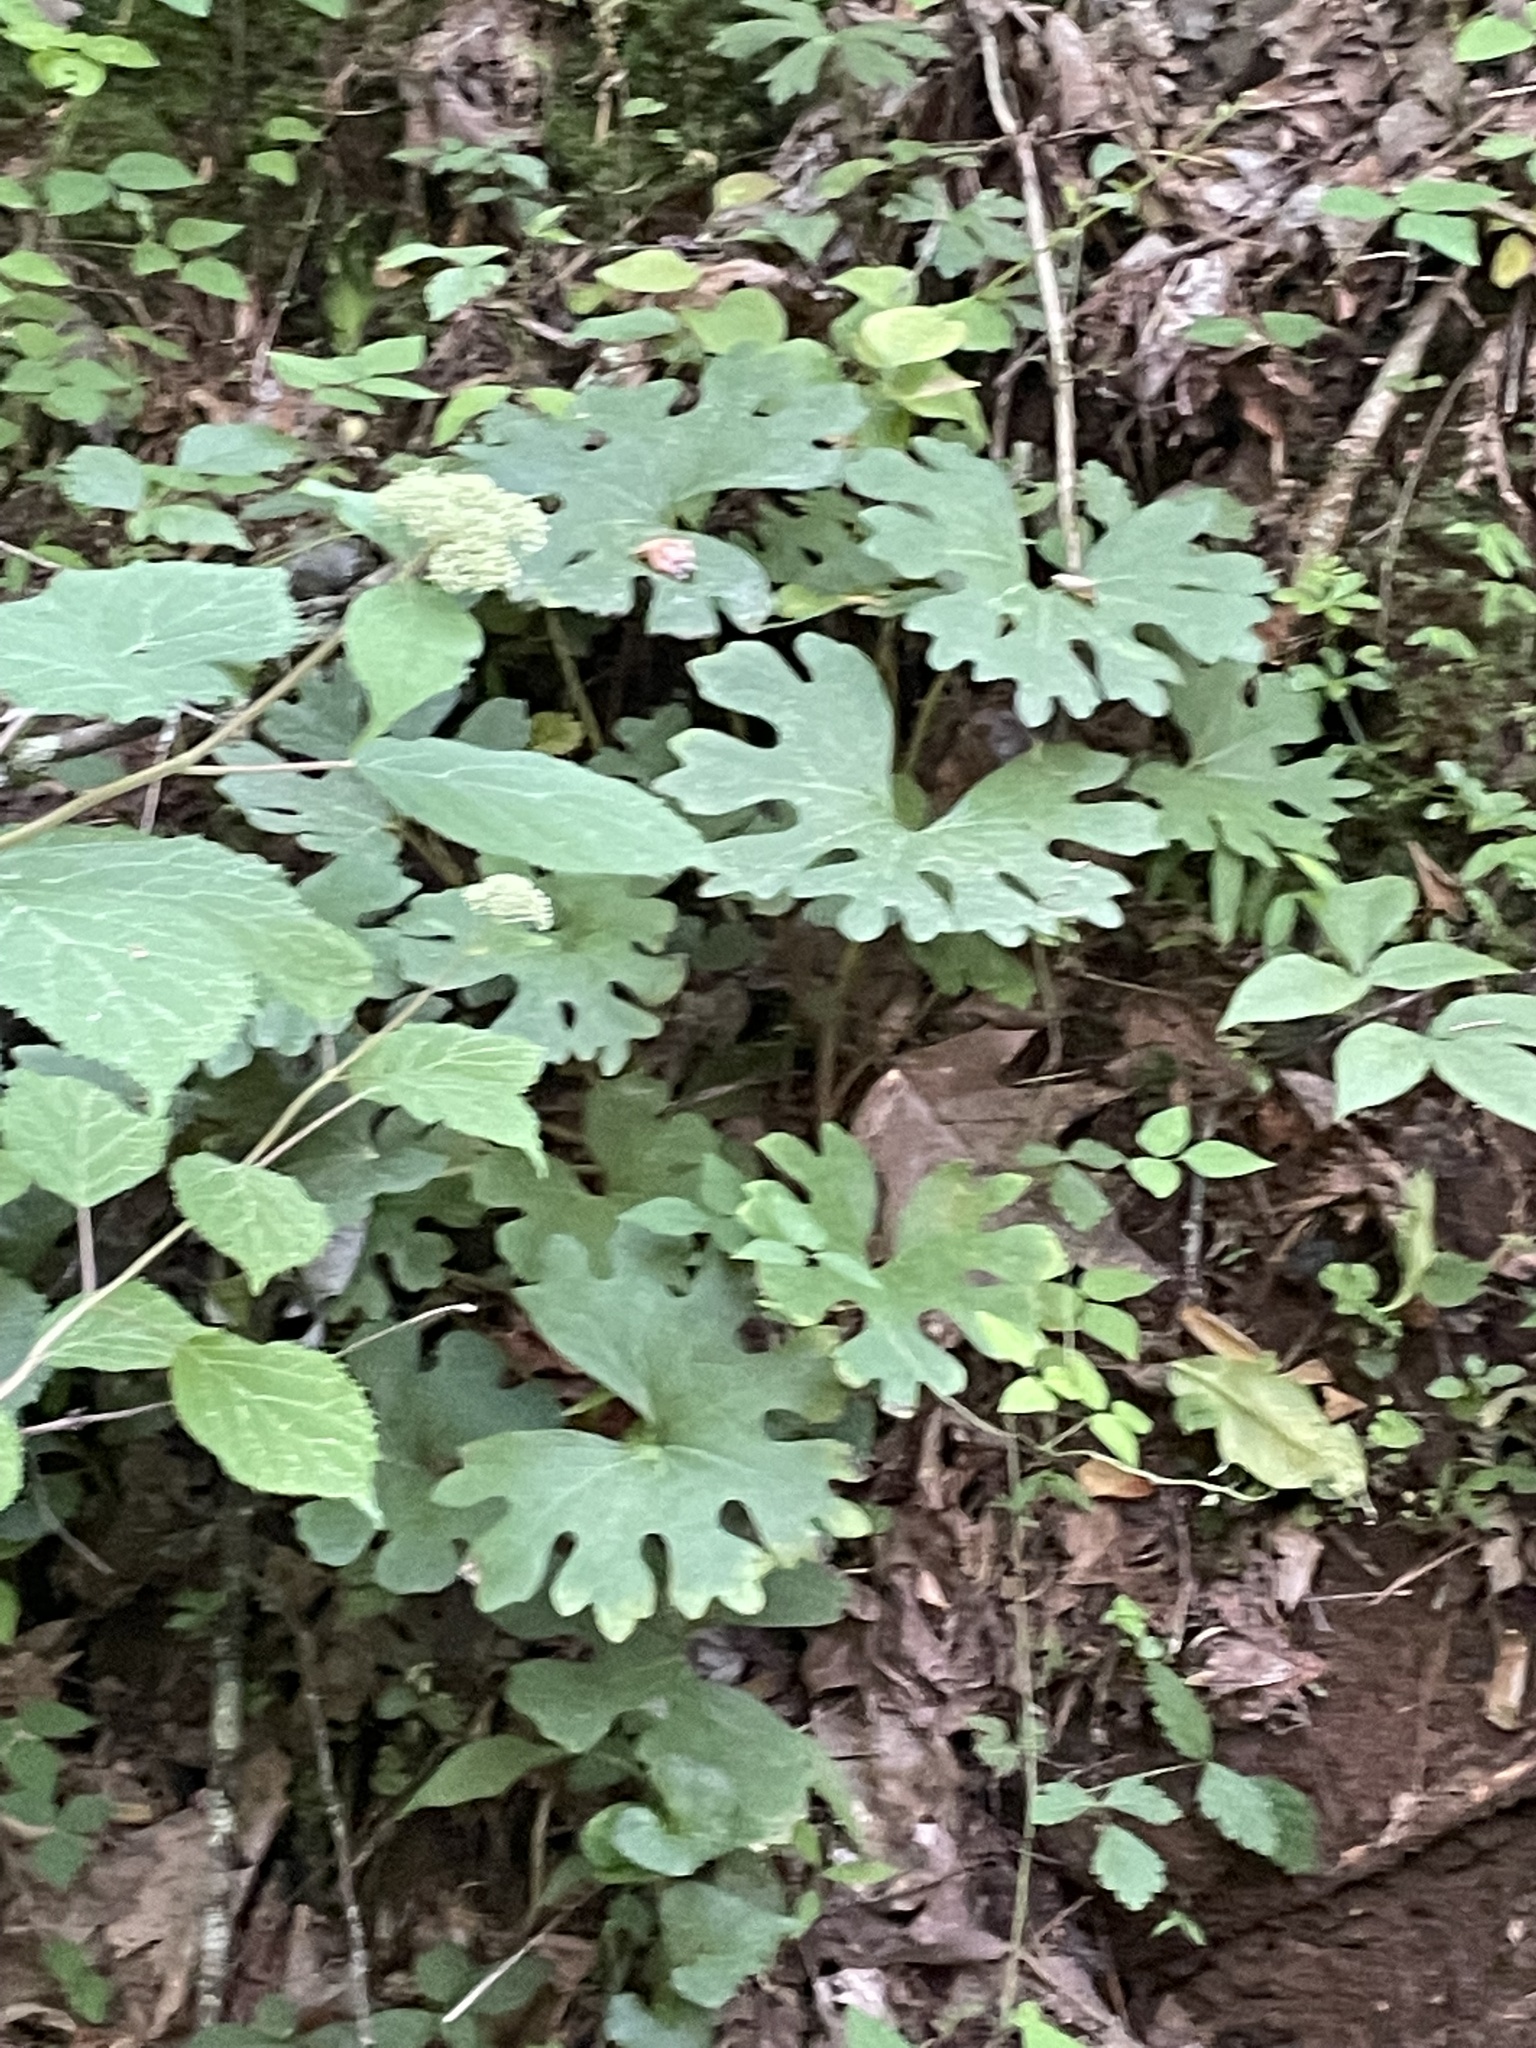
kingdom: Plantae
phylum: Tracheophyta
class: Magnoliopsida
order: Ranunculales
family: Papaveraceae
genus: Sanguinaria
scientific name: Sanguinaria canadensis
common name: Bloodroot
